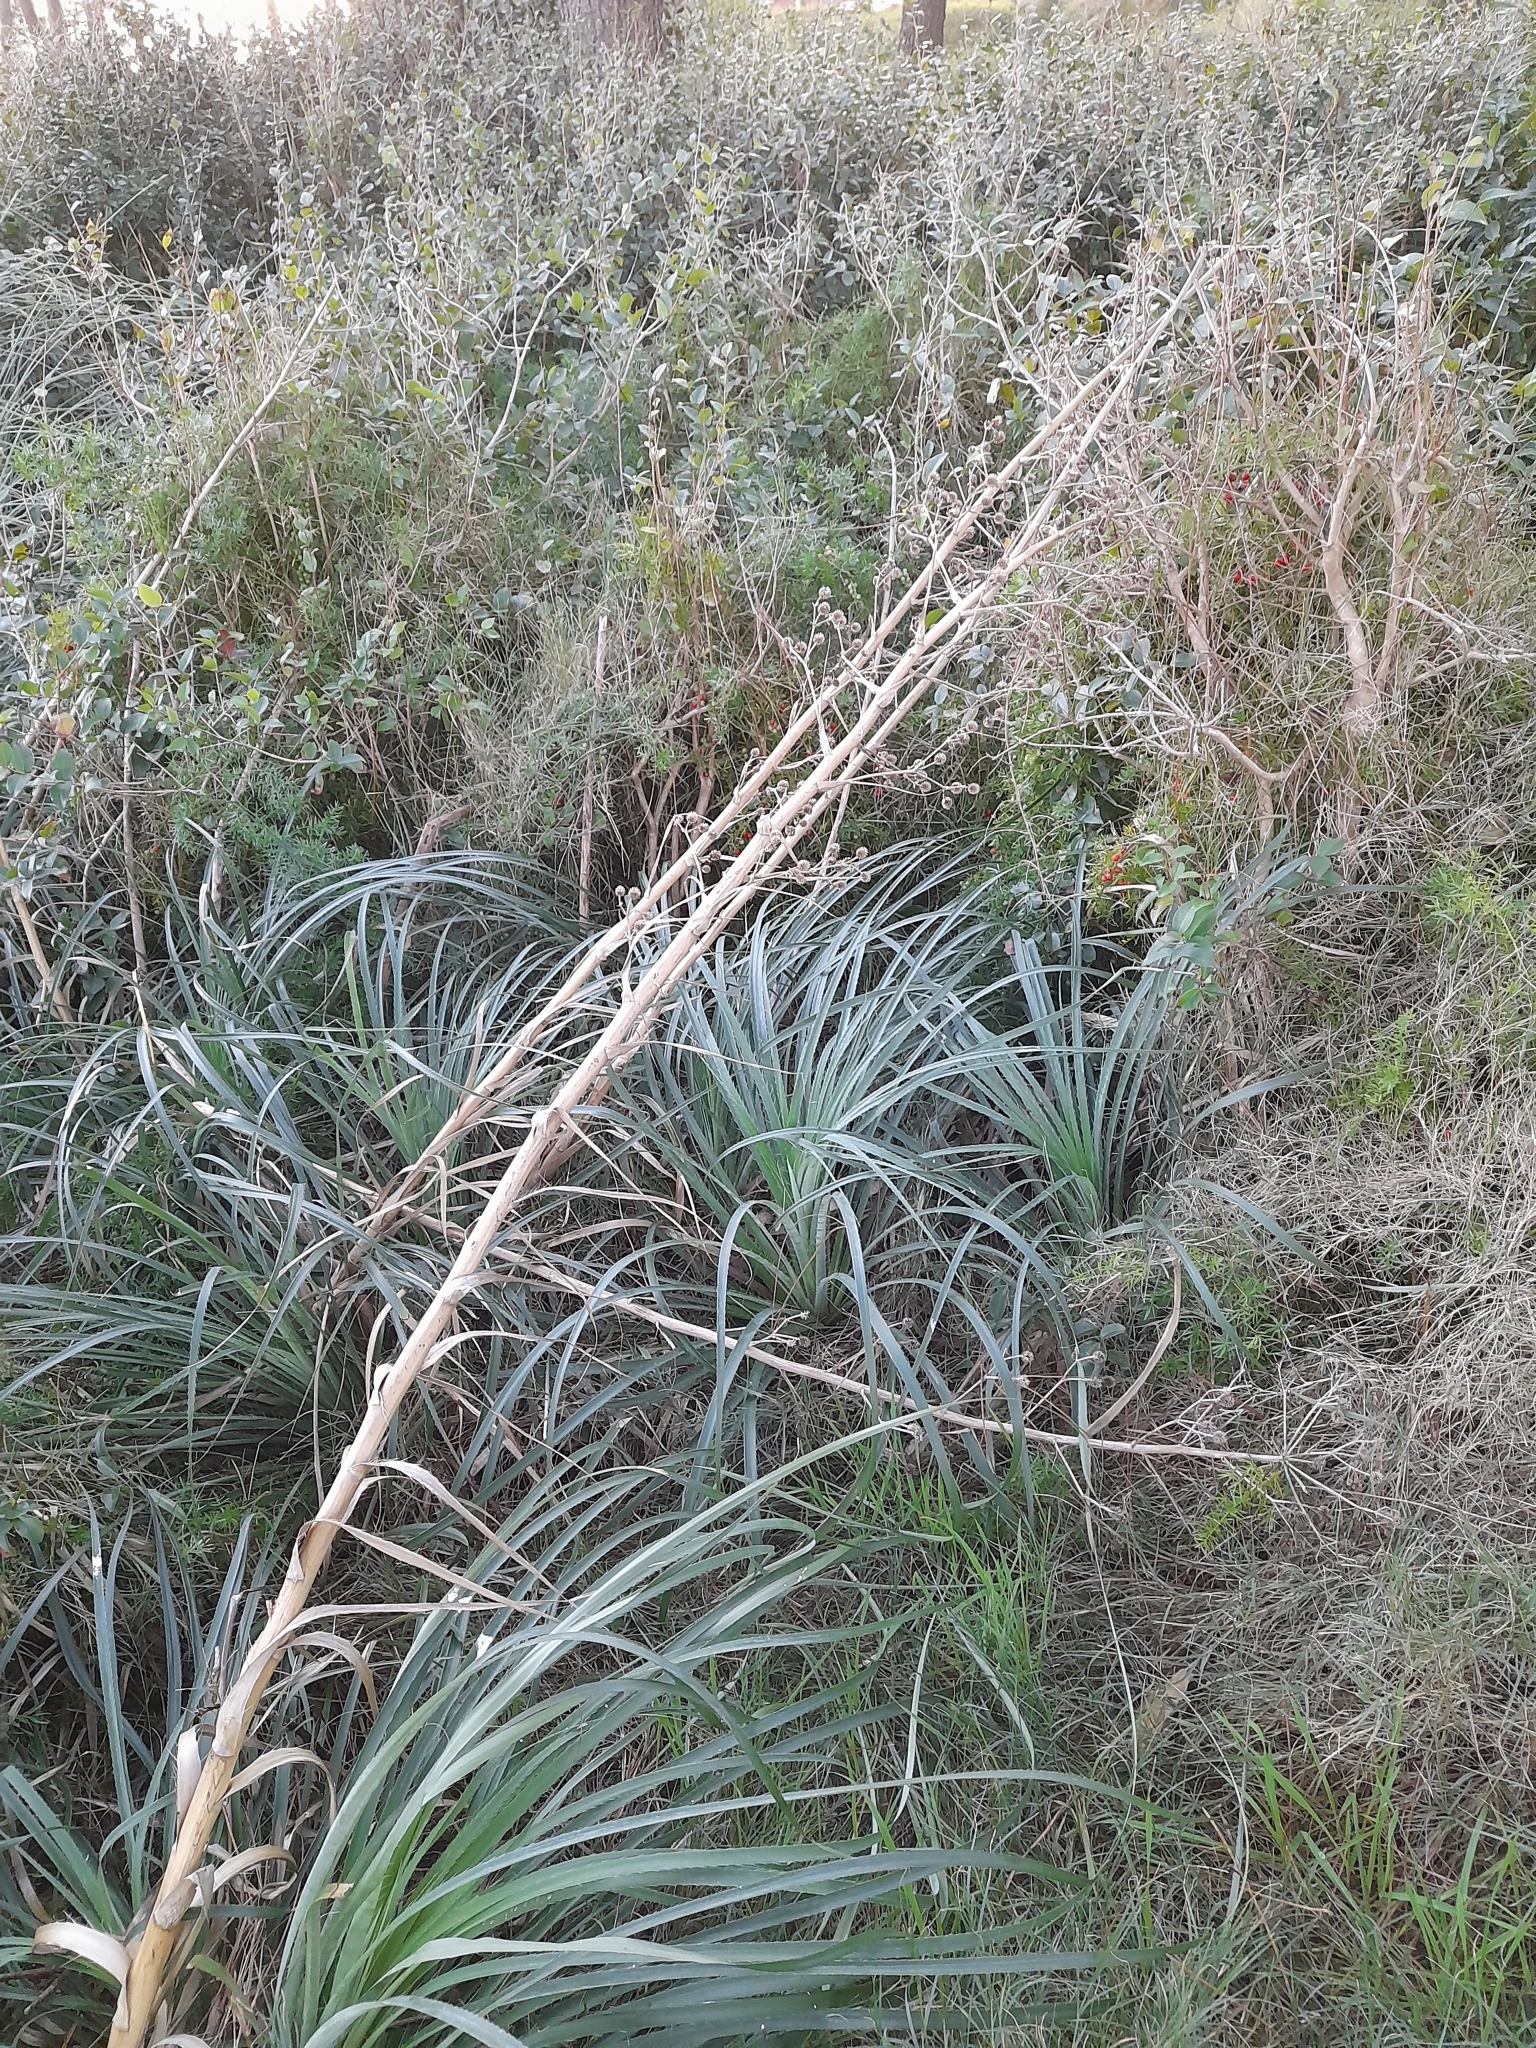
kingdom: Plantae
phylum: Tracheophyta
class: Magnoliopsida
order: Apiales
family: Apiaceae
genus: Eryngium
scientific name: Eryngium horridum
